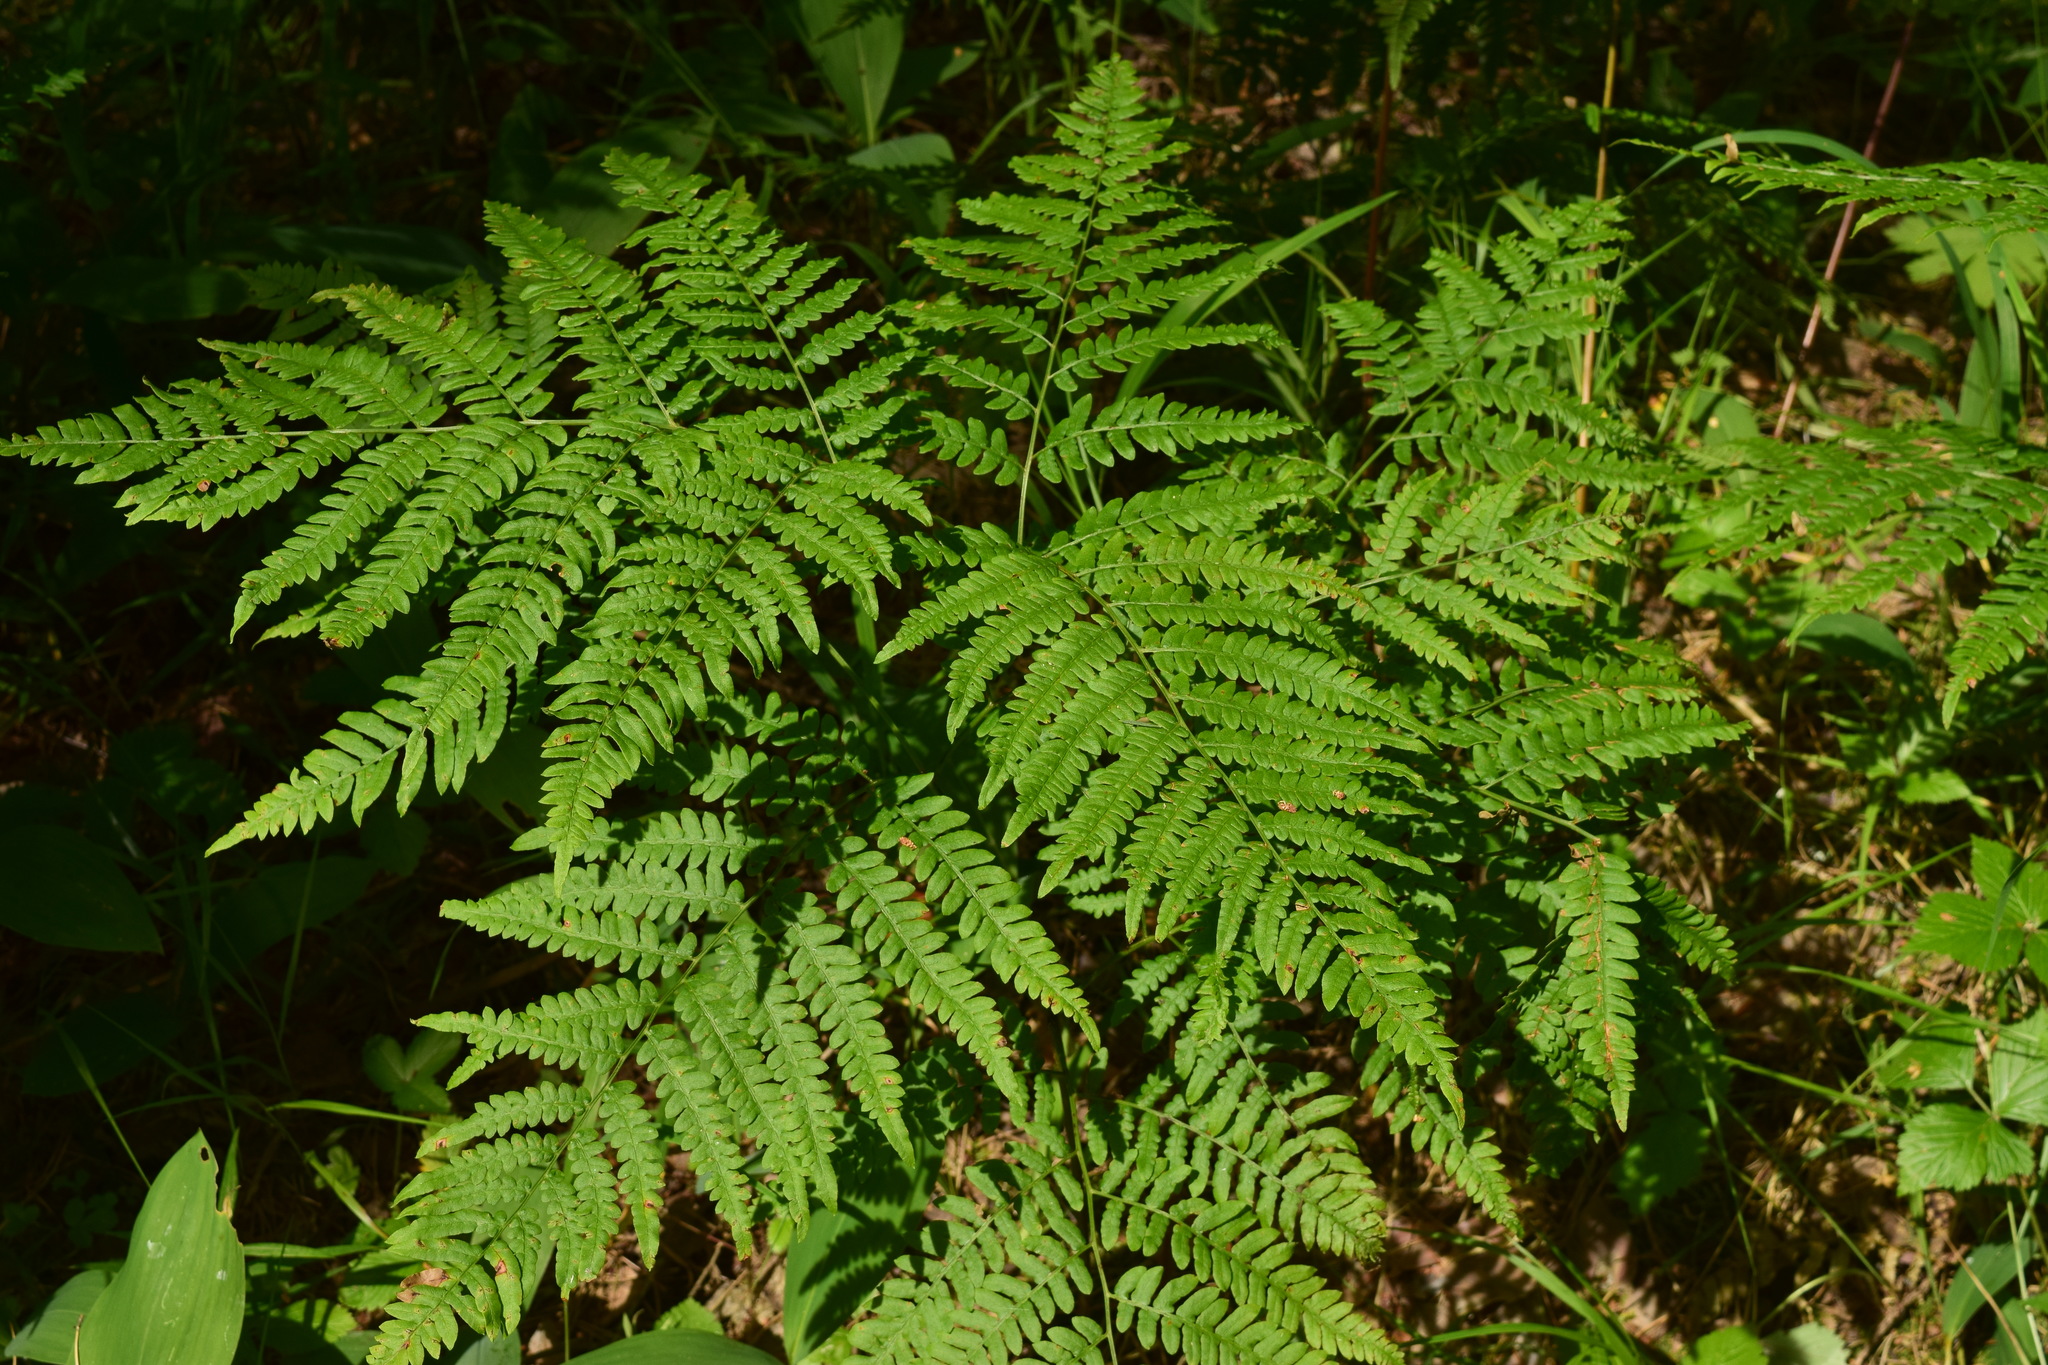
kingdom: Plantae
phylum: Tracheophyta
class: Polypodiopsida
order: Polypodiales
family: Dennstaedtiaceae
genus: Pteridium
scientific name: Pteridium aquilinum
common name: Bracken
